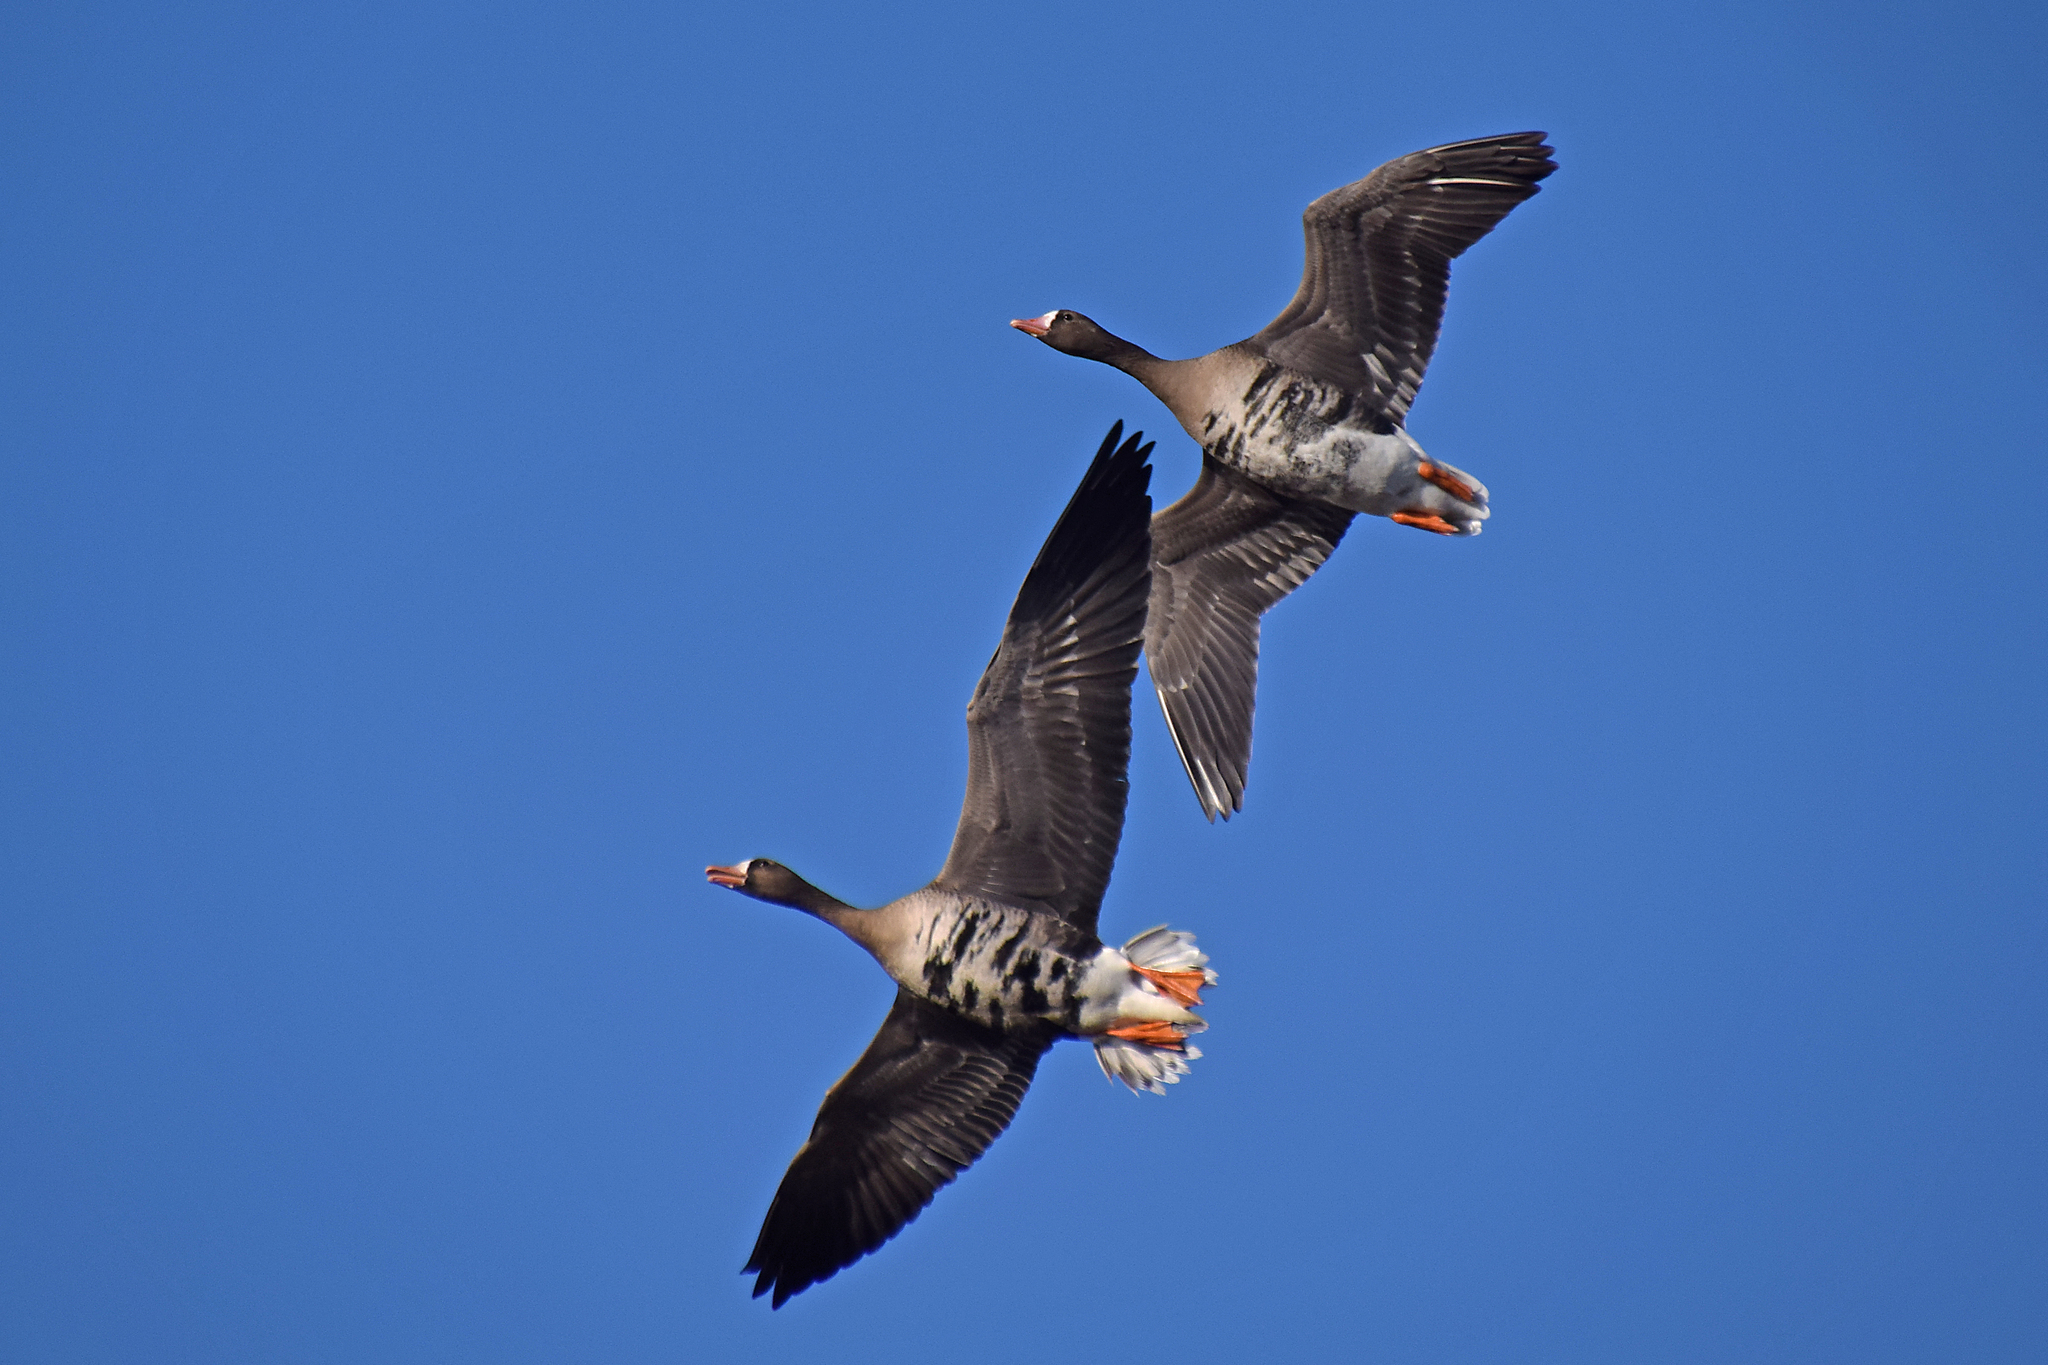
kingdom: Animalia
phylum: Chordata
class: Aves
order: Anseriformes
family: Anatidae
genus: Anser
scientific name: Anser albifrons
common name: Greater white-fronted goose
